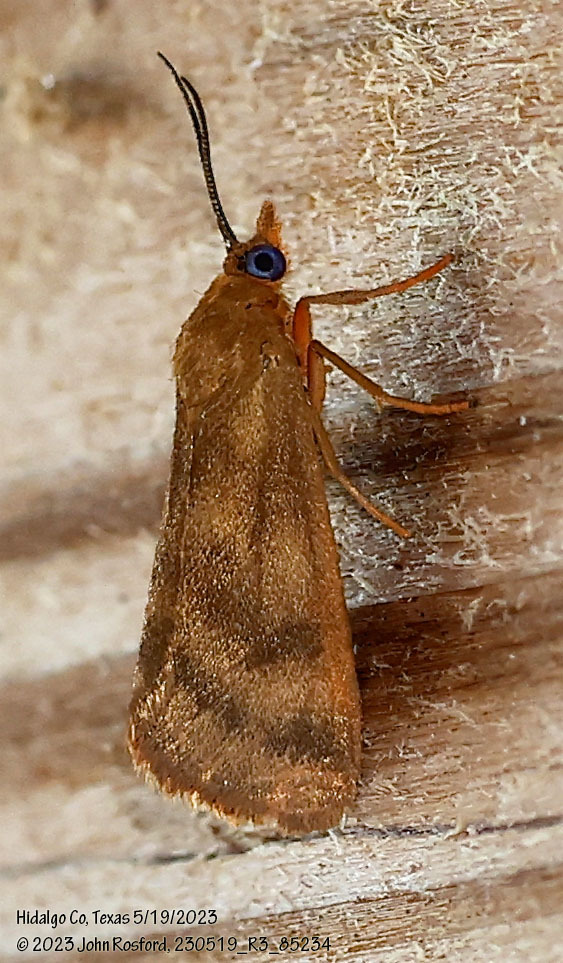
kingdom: Animalia
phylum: Arthropoda
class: Insecta
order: Lepidoptera
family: Erebidae
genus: Virbia
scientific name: Virbia aurantiaca
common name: Orange virbia moth
